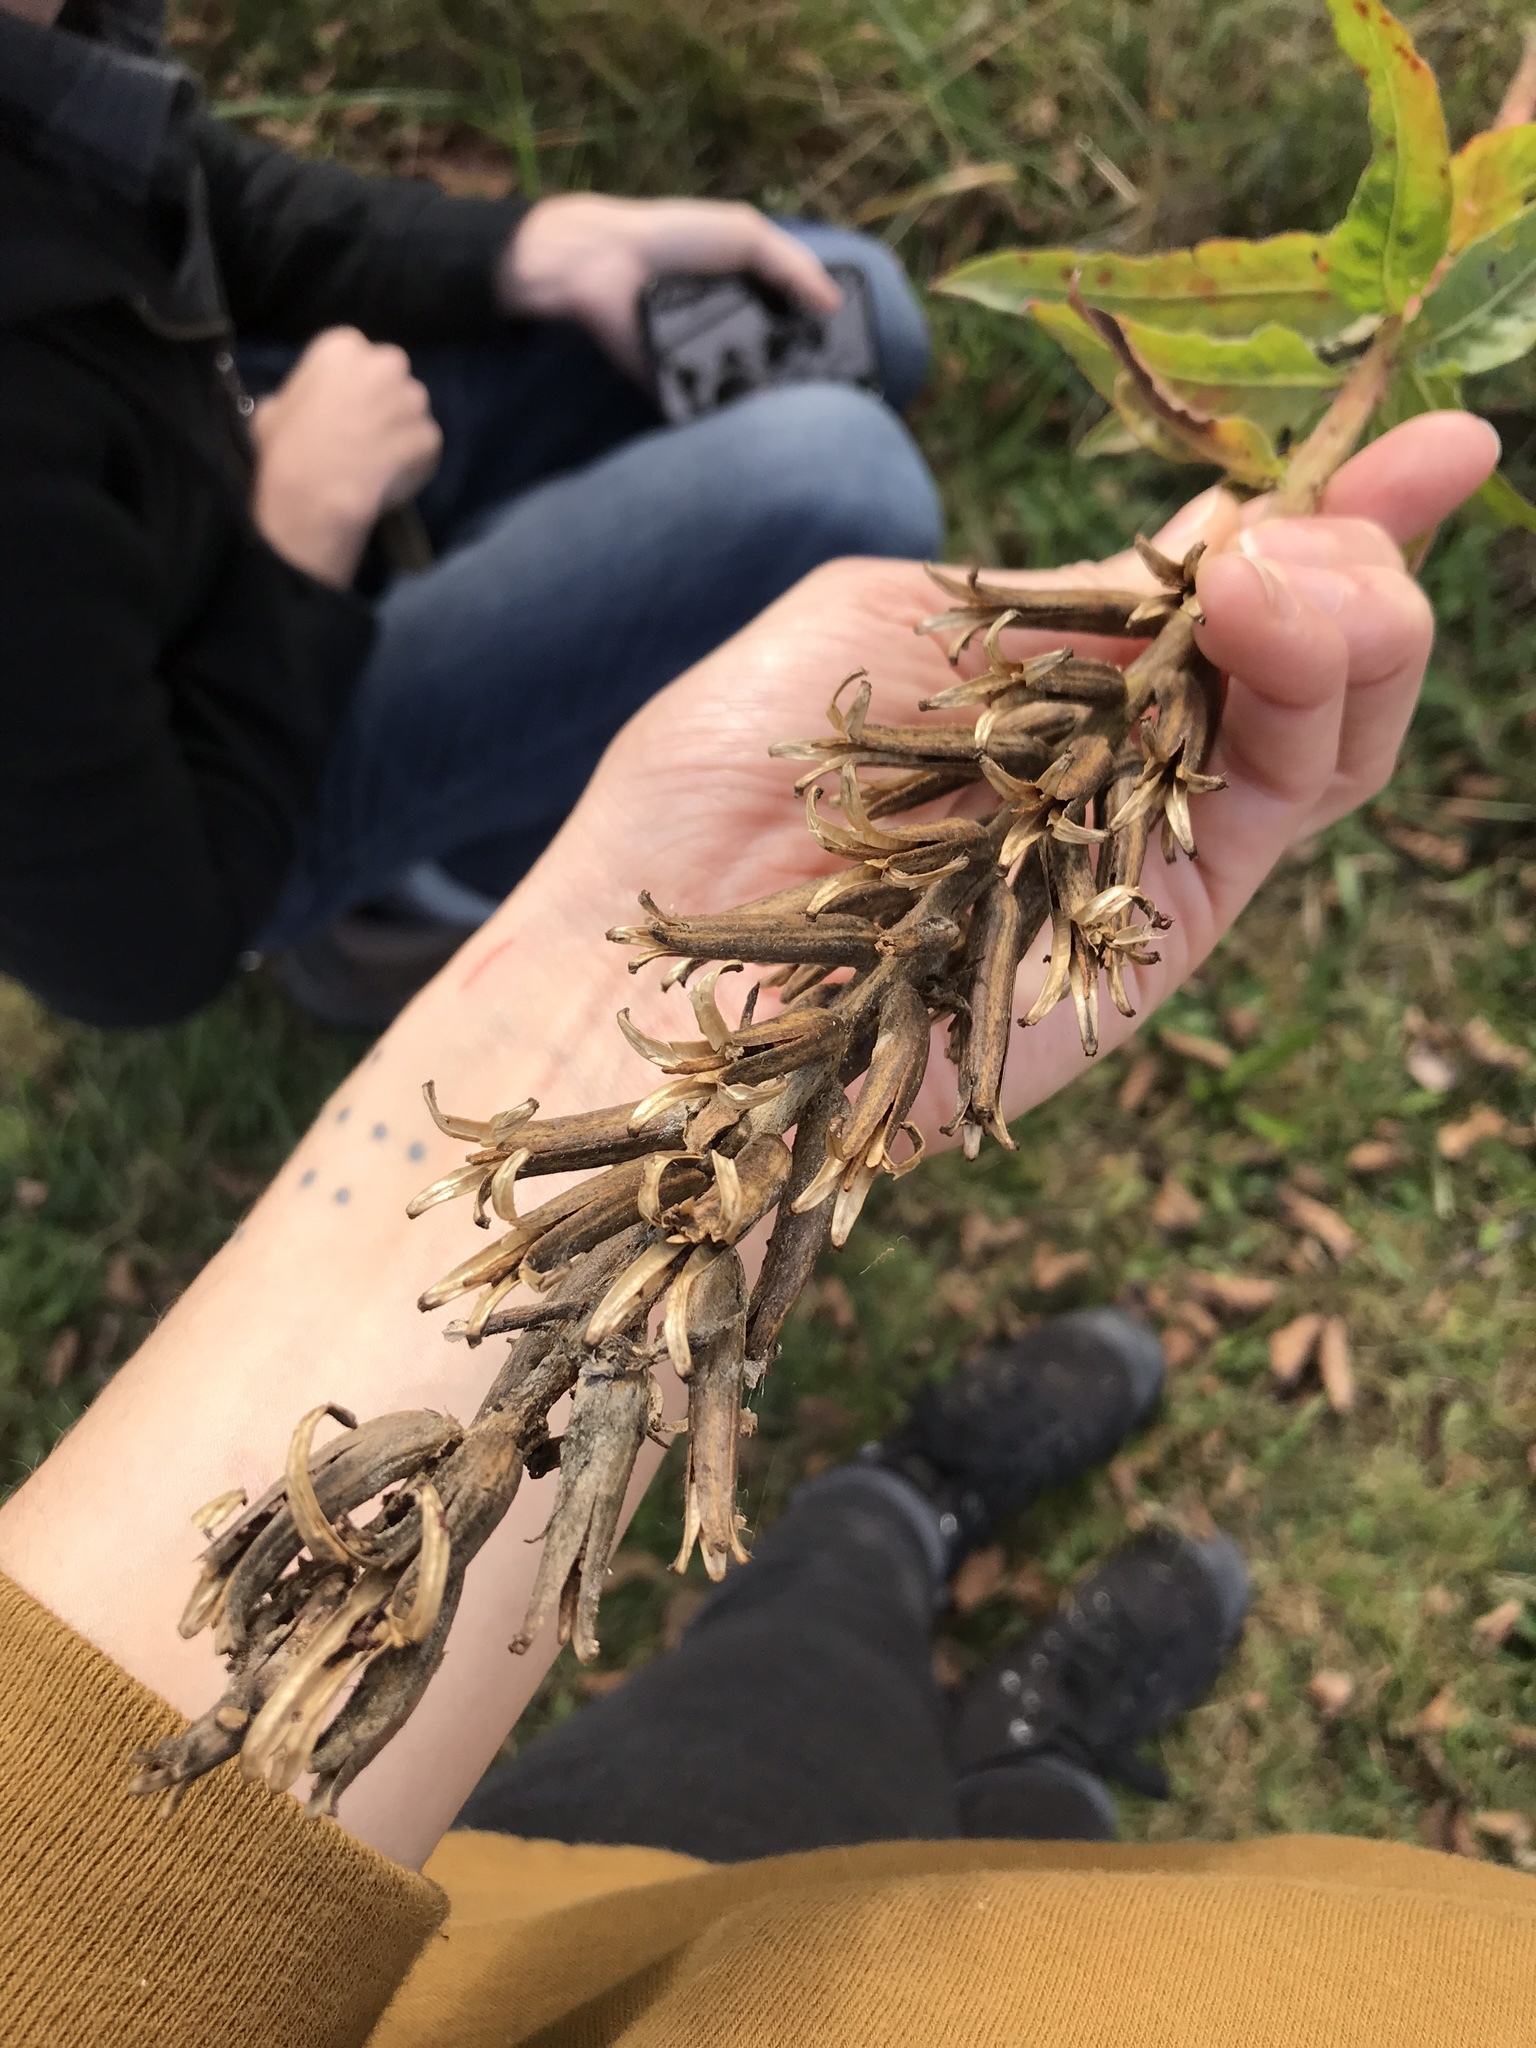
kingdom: Plantae
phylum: Tracheophyta
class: Magnoliopsida
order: Myrtales
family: Onagraceae
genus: Oenothera
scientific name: Oenothera biennis
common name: Common evening-primrose
